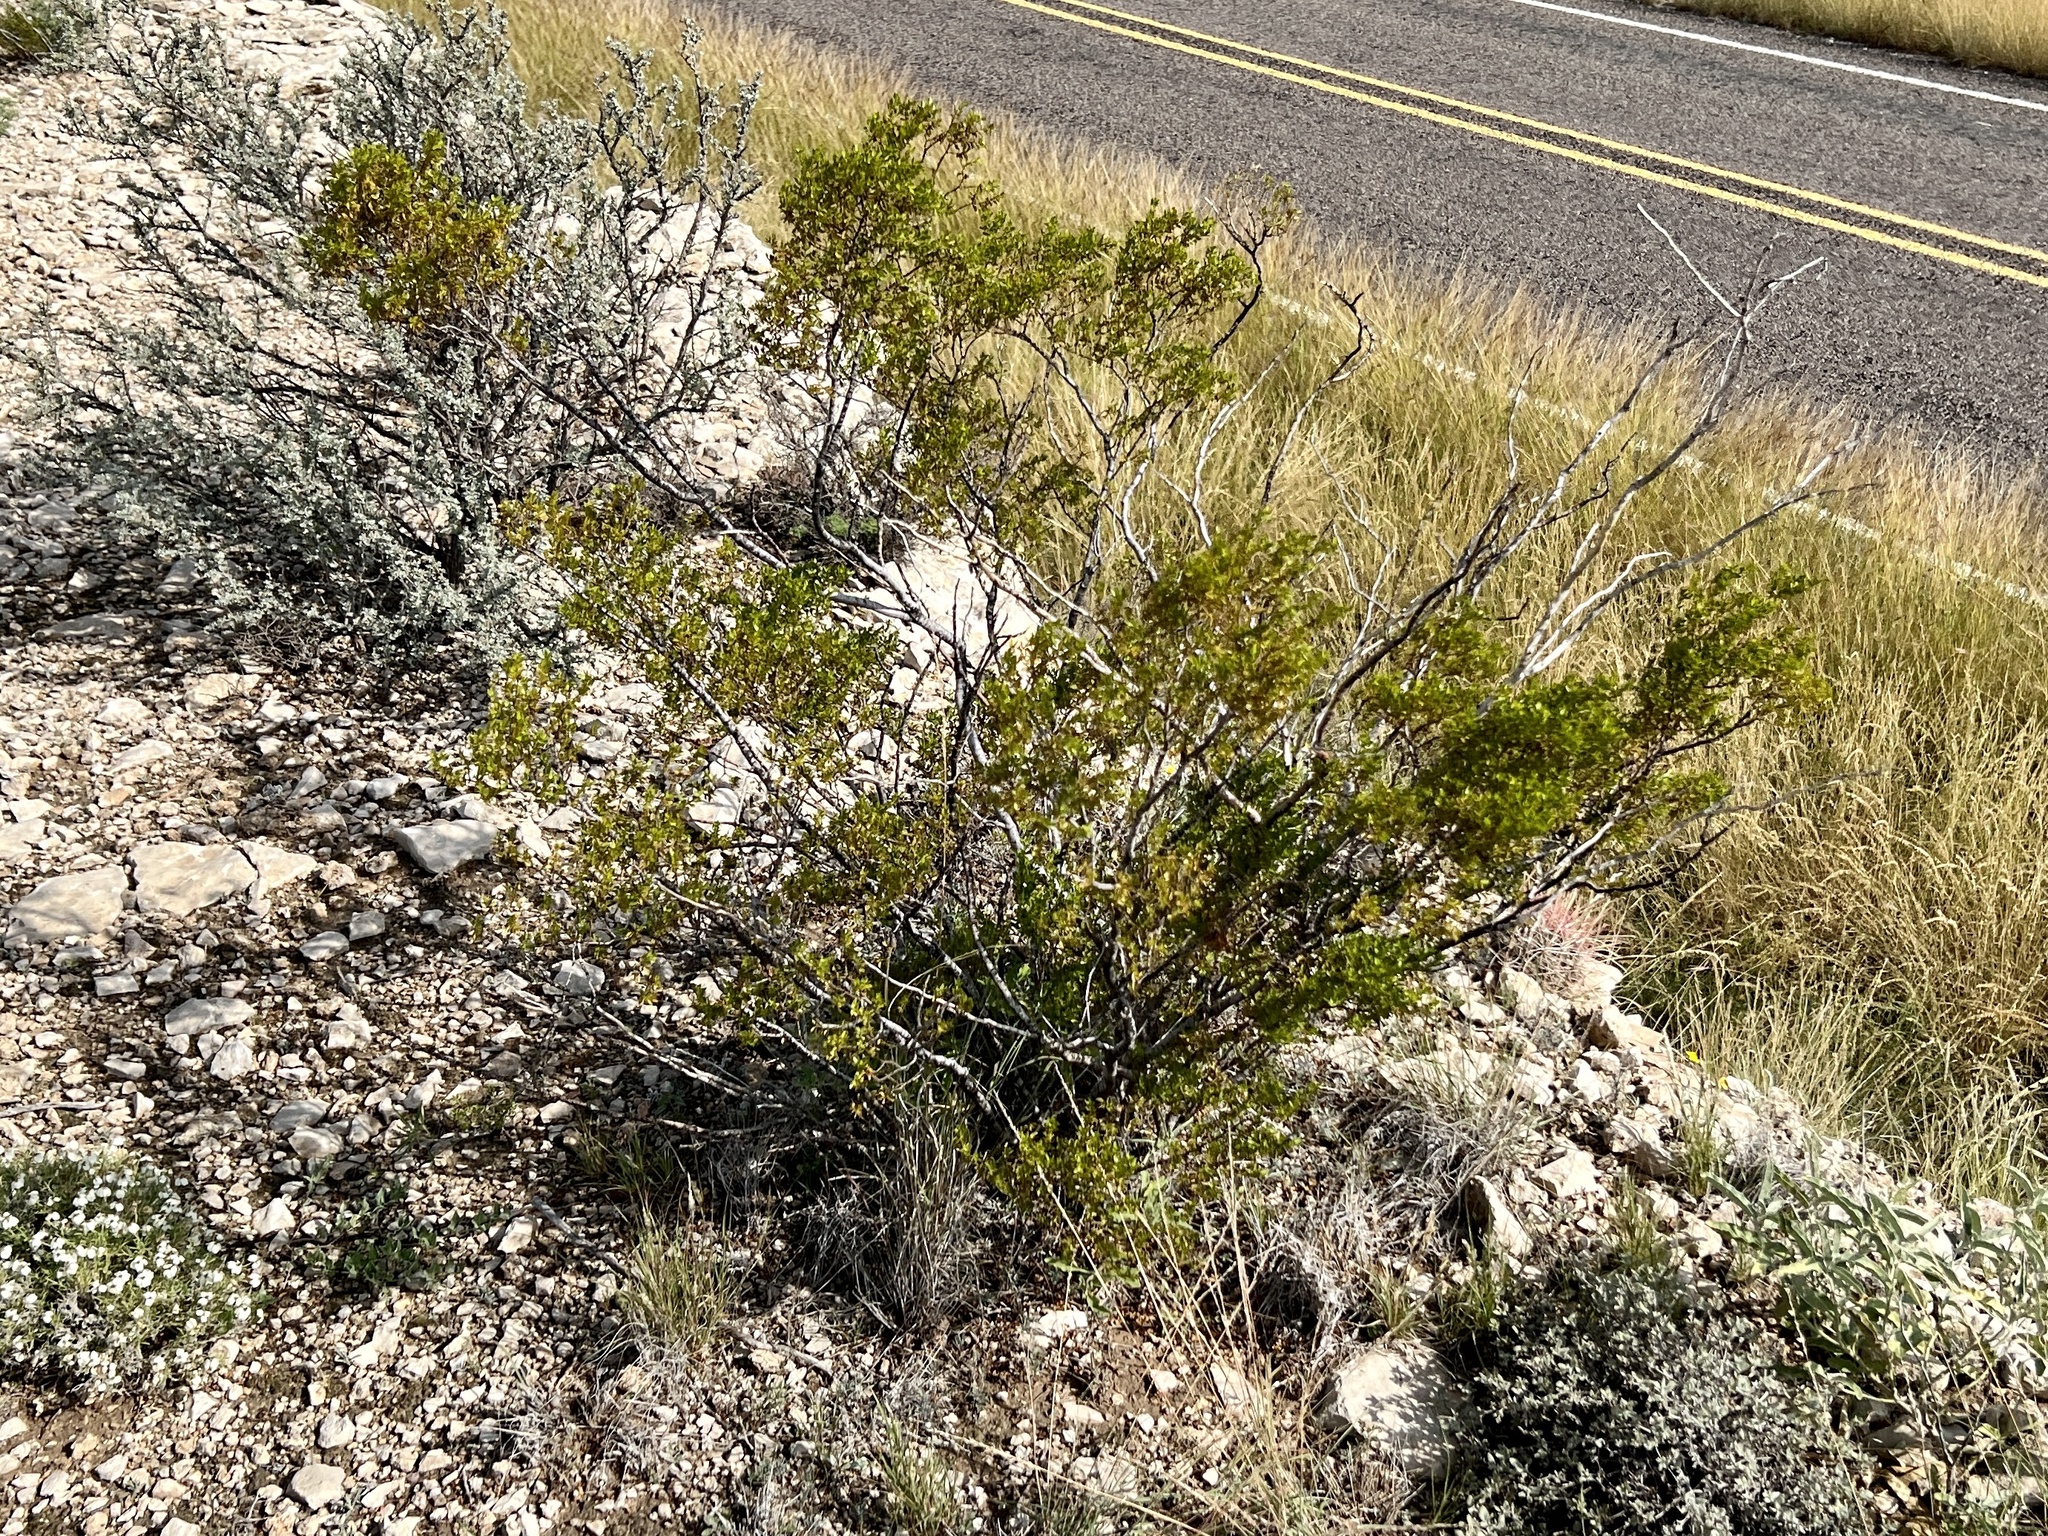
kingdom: Plantae
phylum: Tracheophyta
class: Magnoliopsida
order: Zygophyllales
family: Zygophyllaceae
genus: Larrea
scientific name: Larrea tridentata
